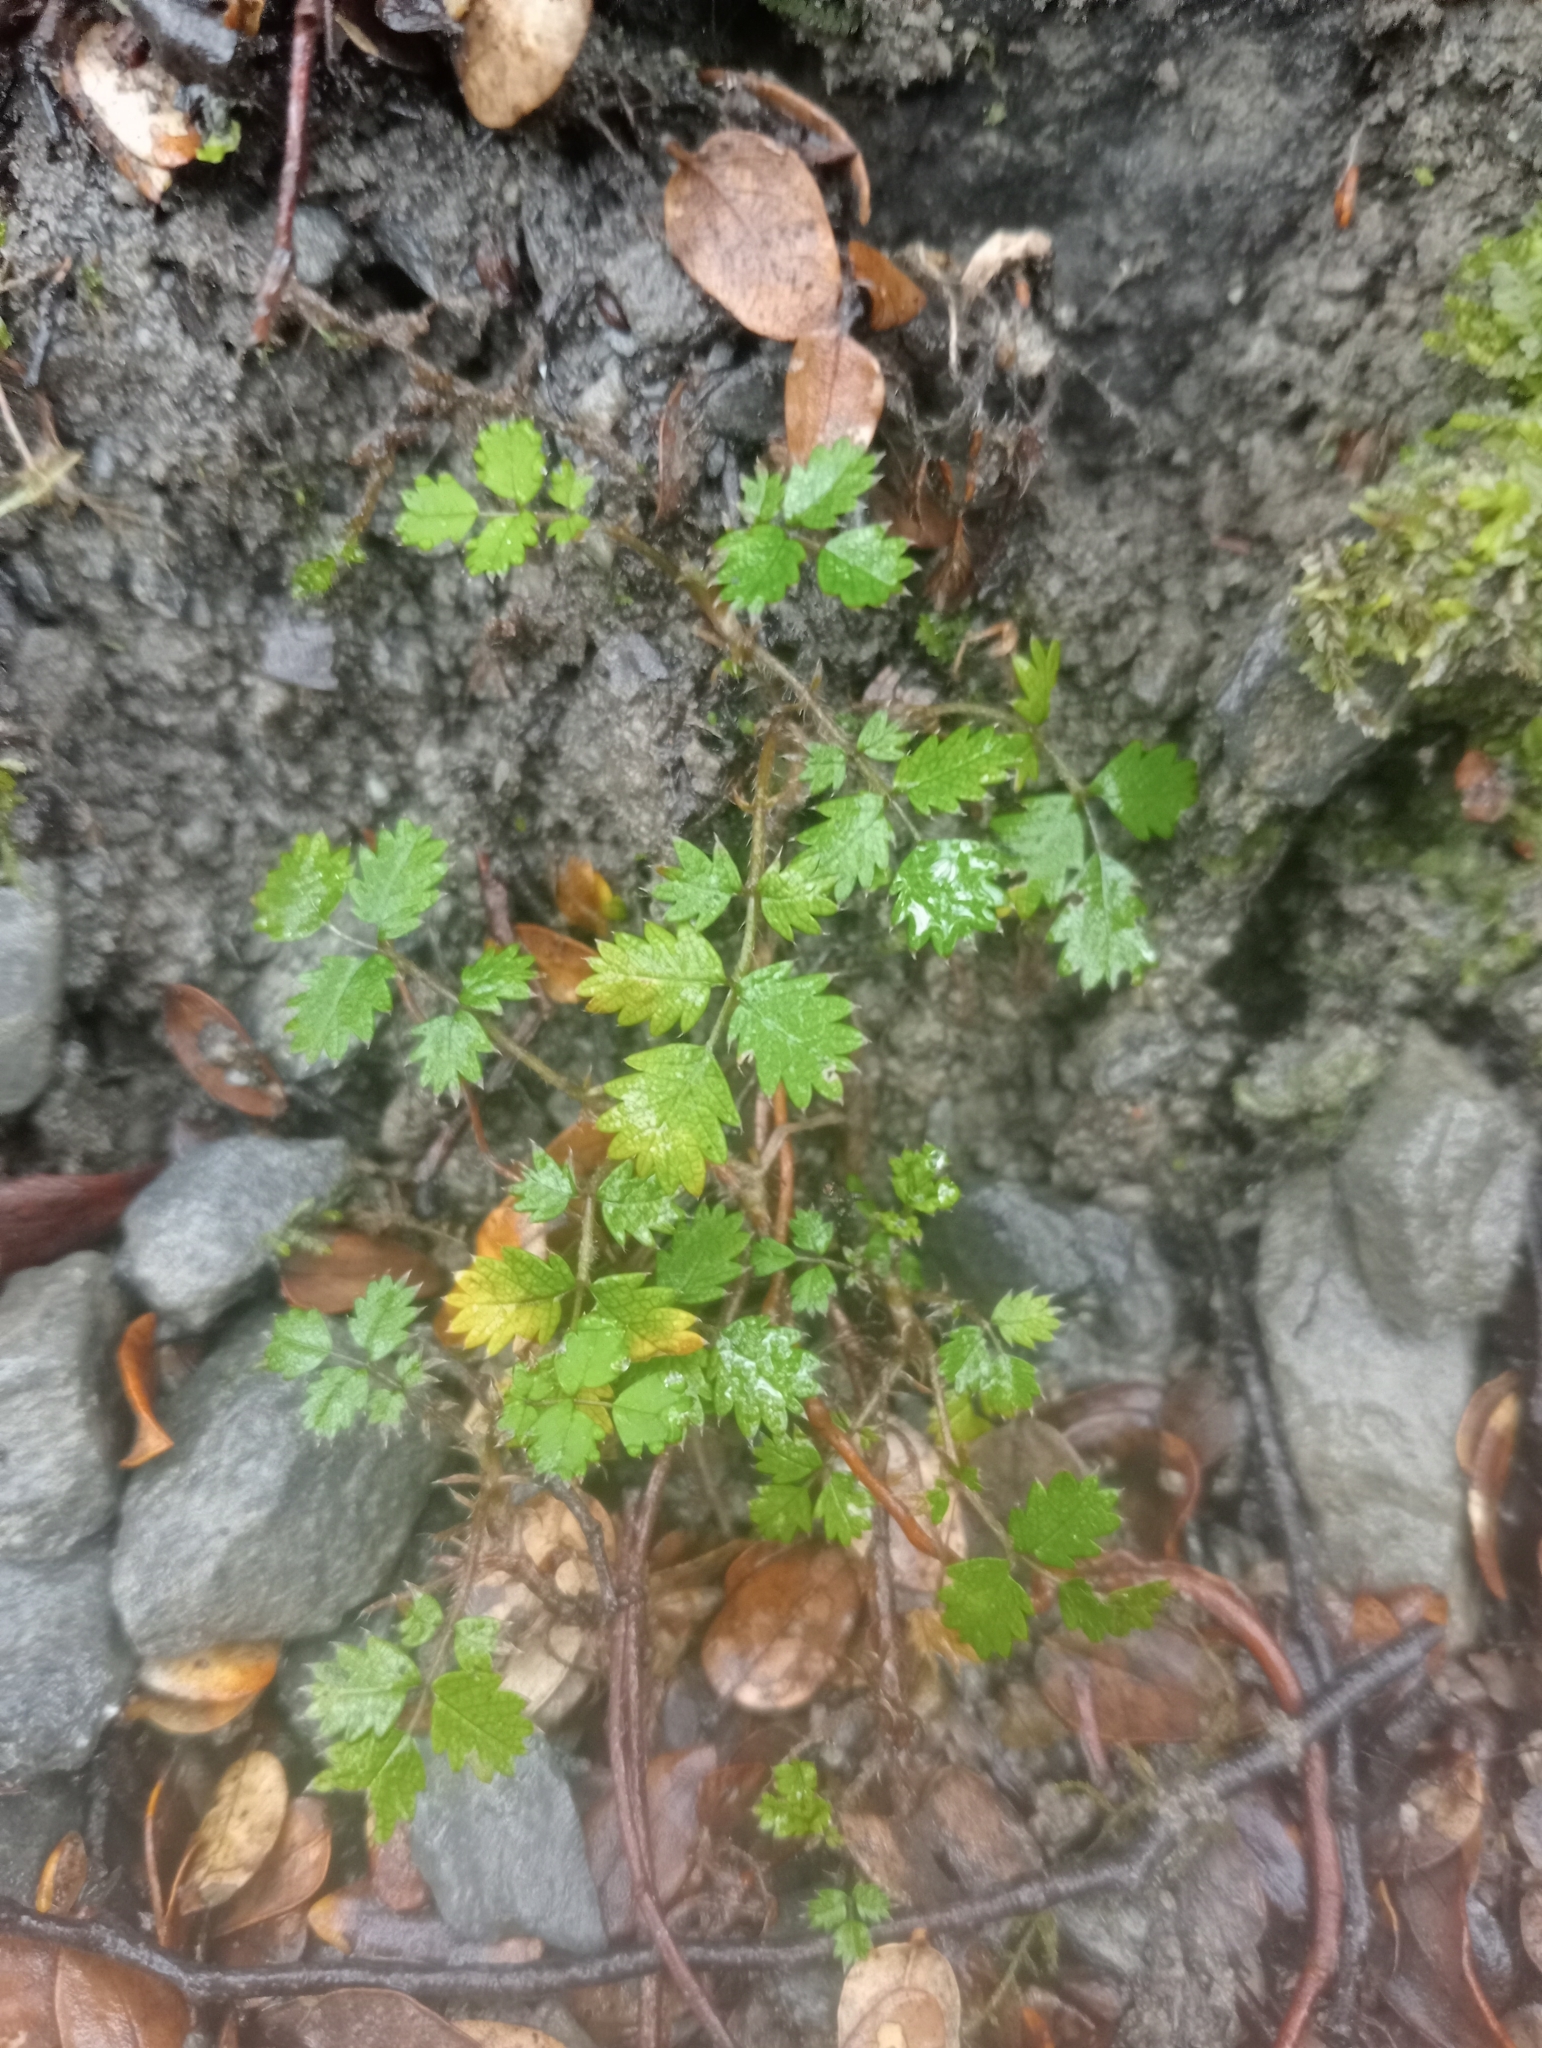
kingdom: Plantae
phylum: Tracheophyta
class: Magnoliopsida
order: Rosales
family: Rosaceae
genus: Acaena
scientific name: Acaena juvenca
